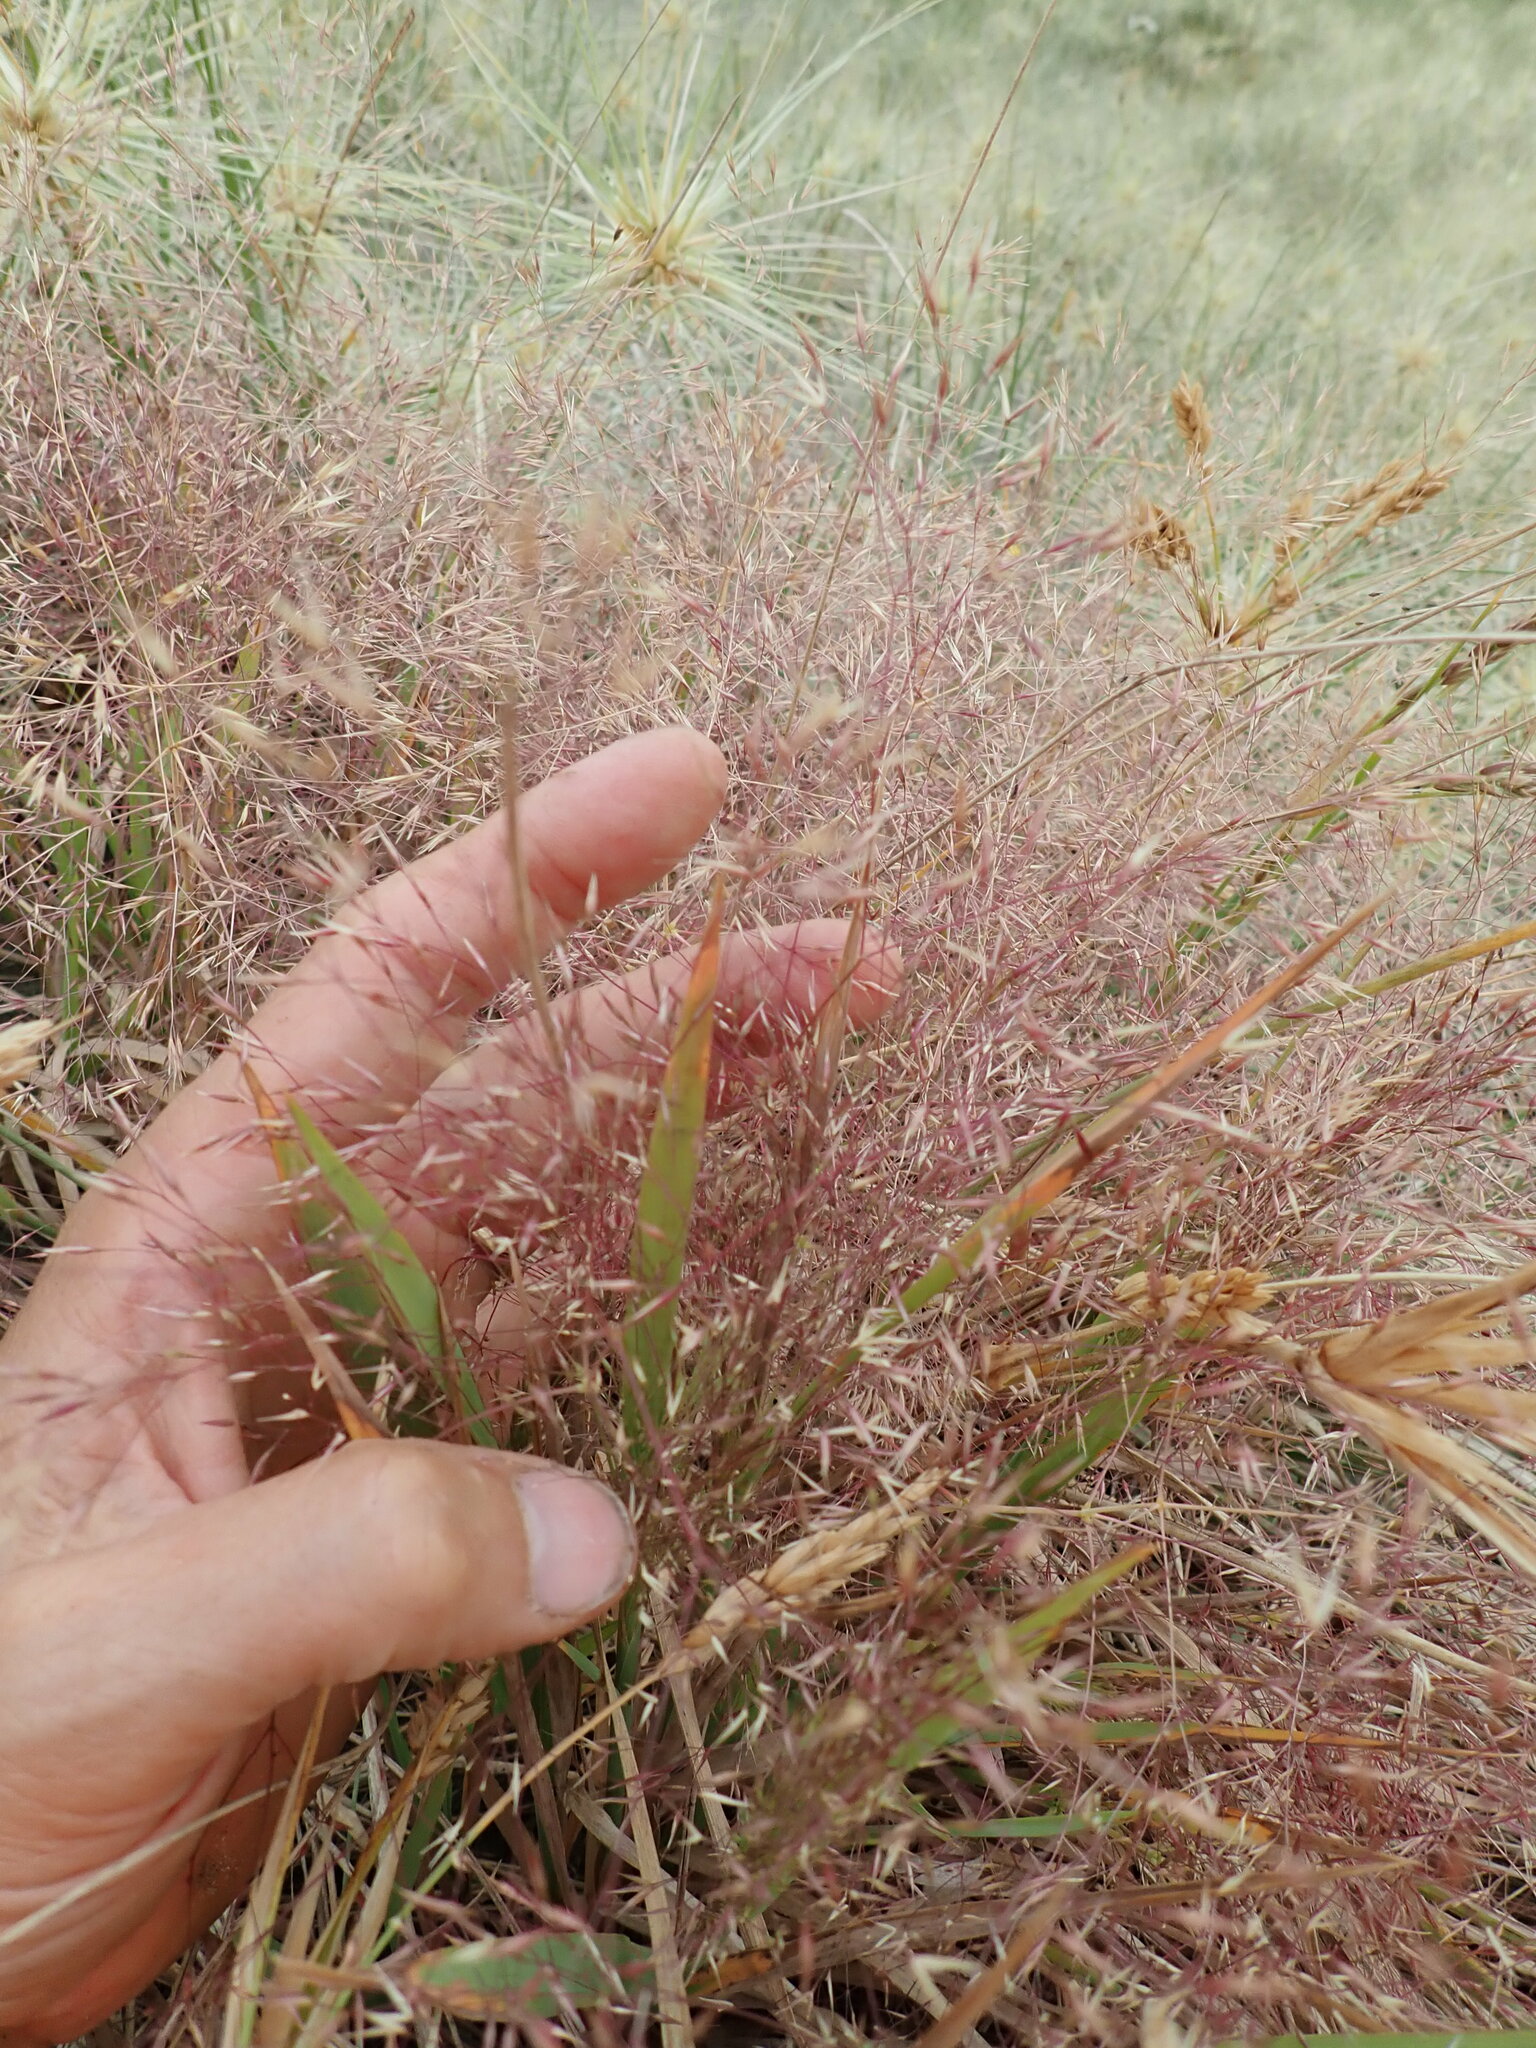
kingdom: Plantae
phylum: Tracheophyta
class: Liliopsida
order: Poales
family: Poaceae
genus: Lachnagrostis
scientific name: Lachnagrostis billardierei
